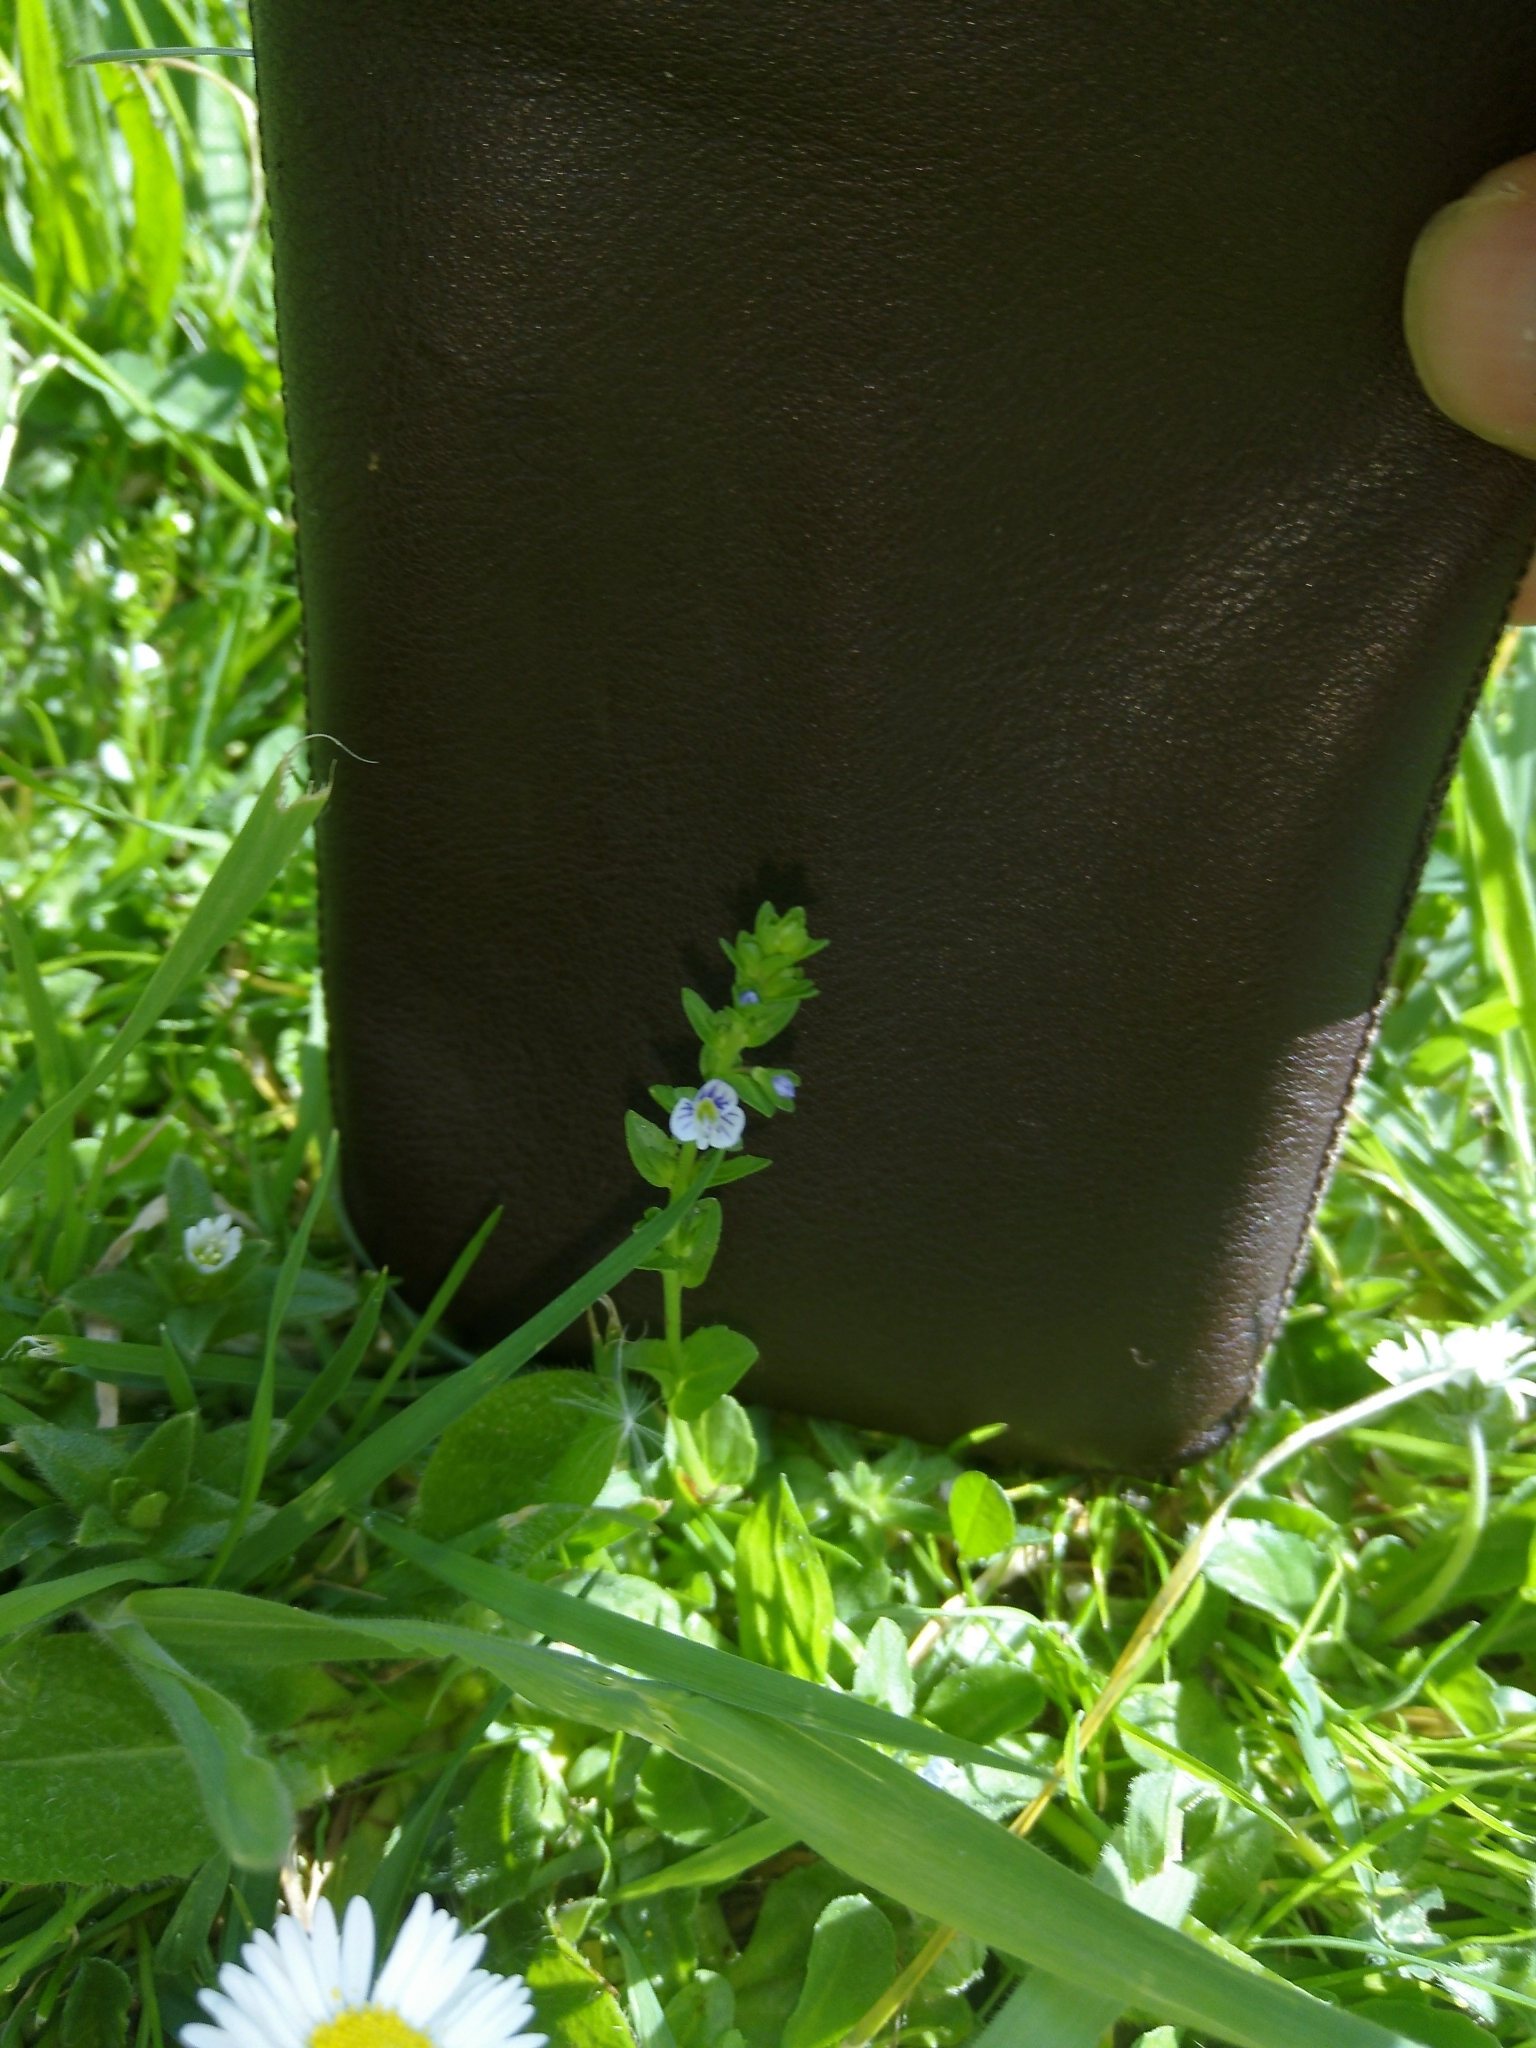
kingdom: Plantae
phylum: Tracheophyta
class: Magnoliopsida
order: Lamiales
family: Plantaginaceae
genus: Veronica
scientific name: Veronica serpyllifolia
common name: Thyme-leaved speedwell
